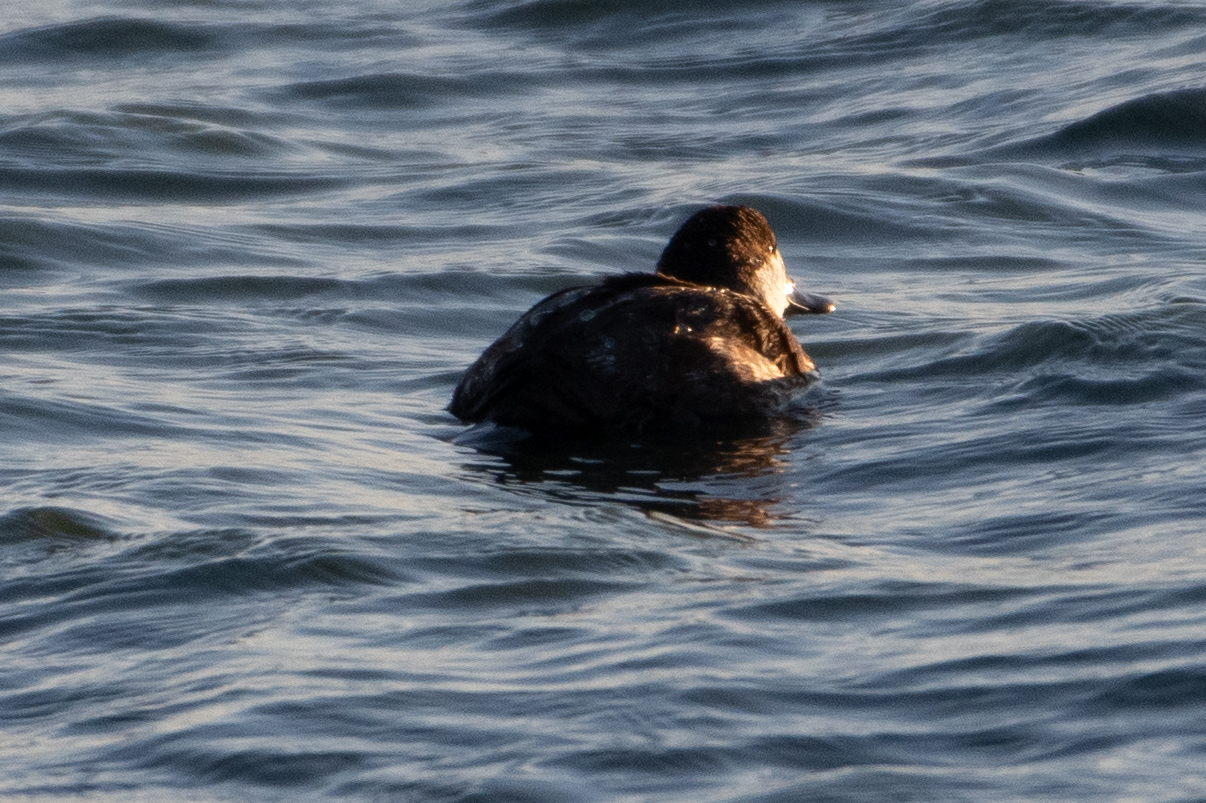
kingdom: Animalia
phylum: Chordata
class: Aves
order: Anseriformes
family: Anatidae
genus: Oxyura
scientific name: Oxyura jamaicensis
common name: Ruddy duck
